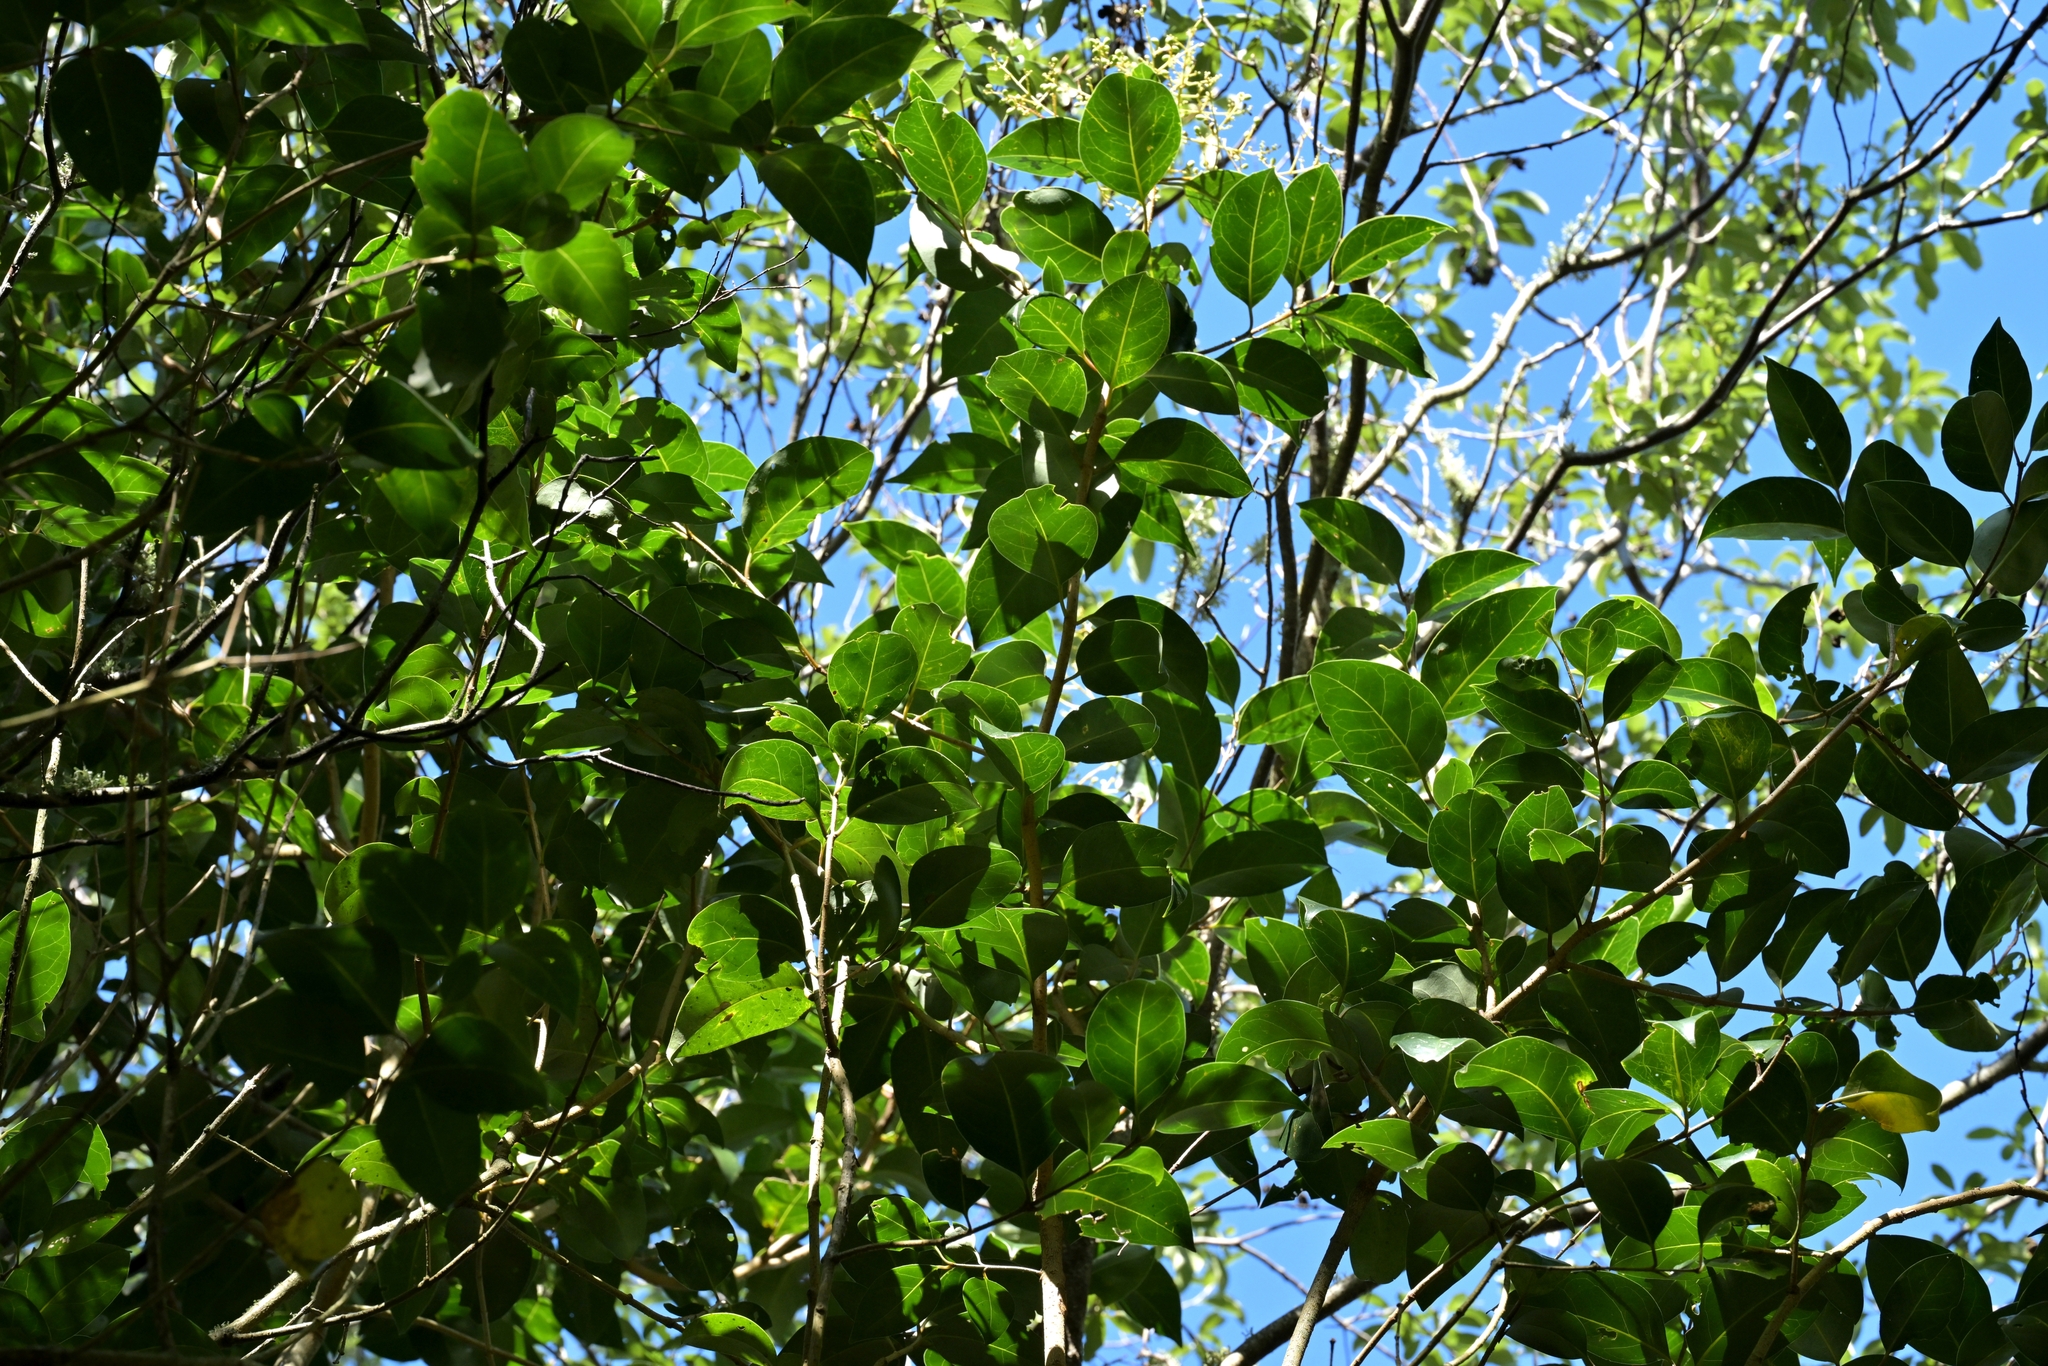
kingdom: Plantae
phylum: Tracheophyta
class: Magnoliopsida
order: Lamiales
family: Oleaceae
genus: Ligustrum
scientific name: Ligustrum lucidum
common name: Glossy privet
